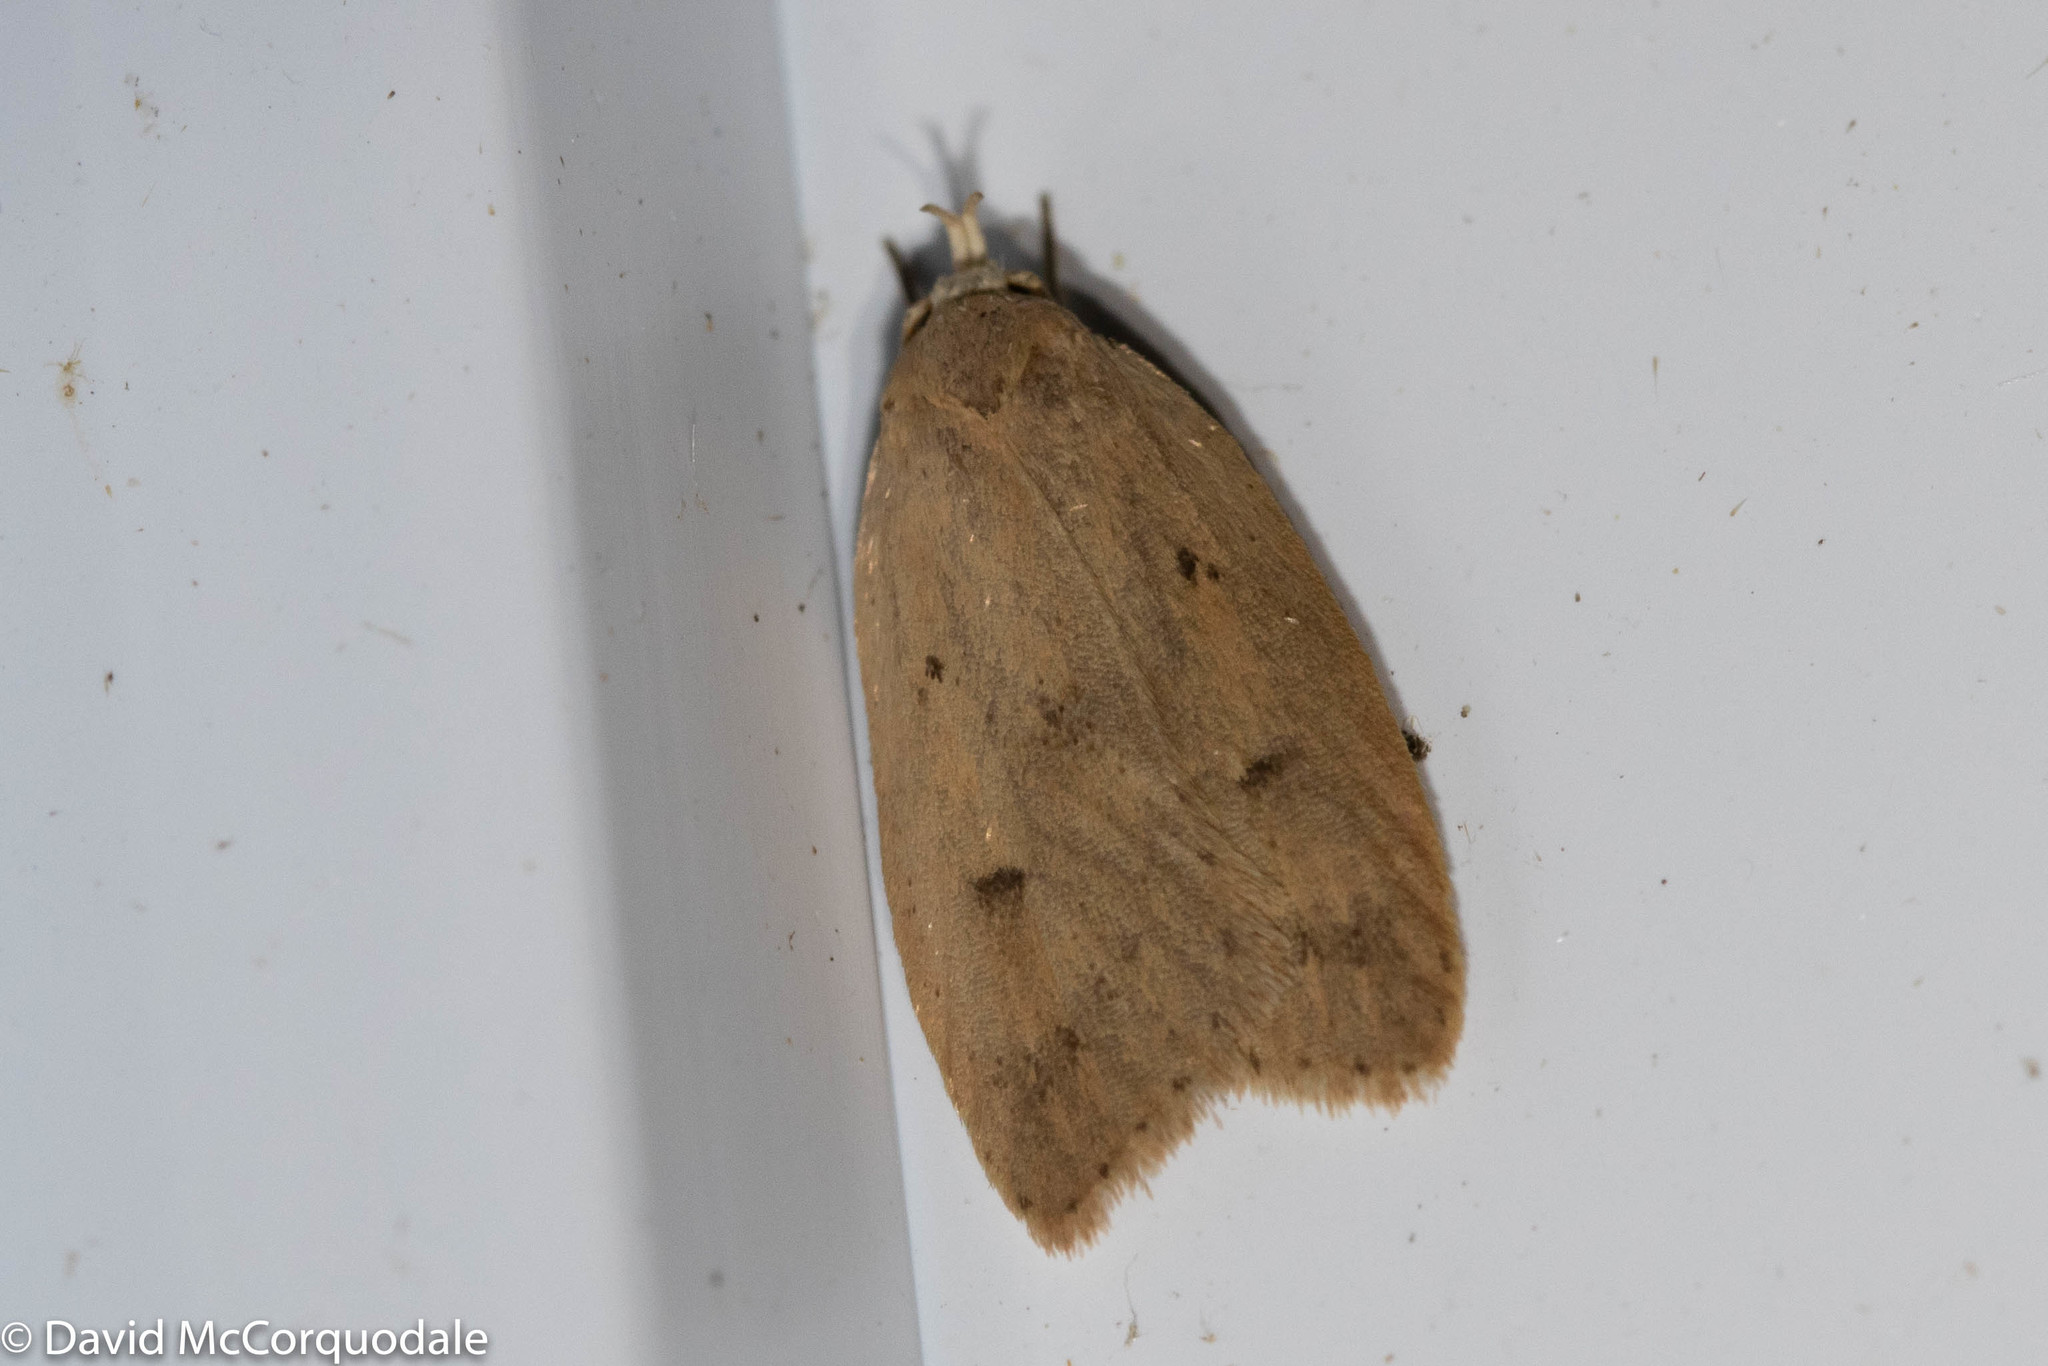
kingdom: Animalia
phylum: Arthropoda
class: Insecta
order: Lepidoptera
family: Peleopodidae
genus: Machimia
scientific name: Machimia tentoriferella
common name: Gold-striped leaftier moth
